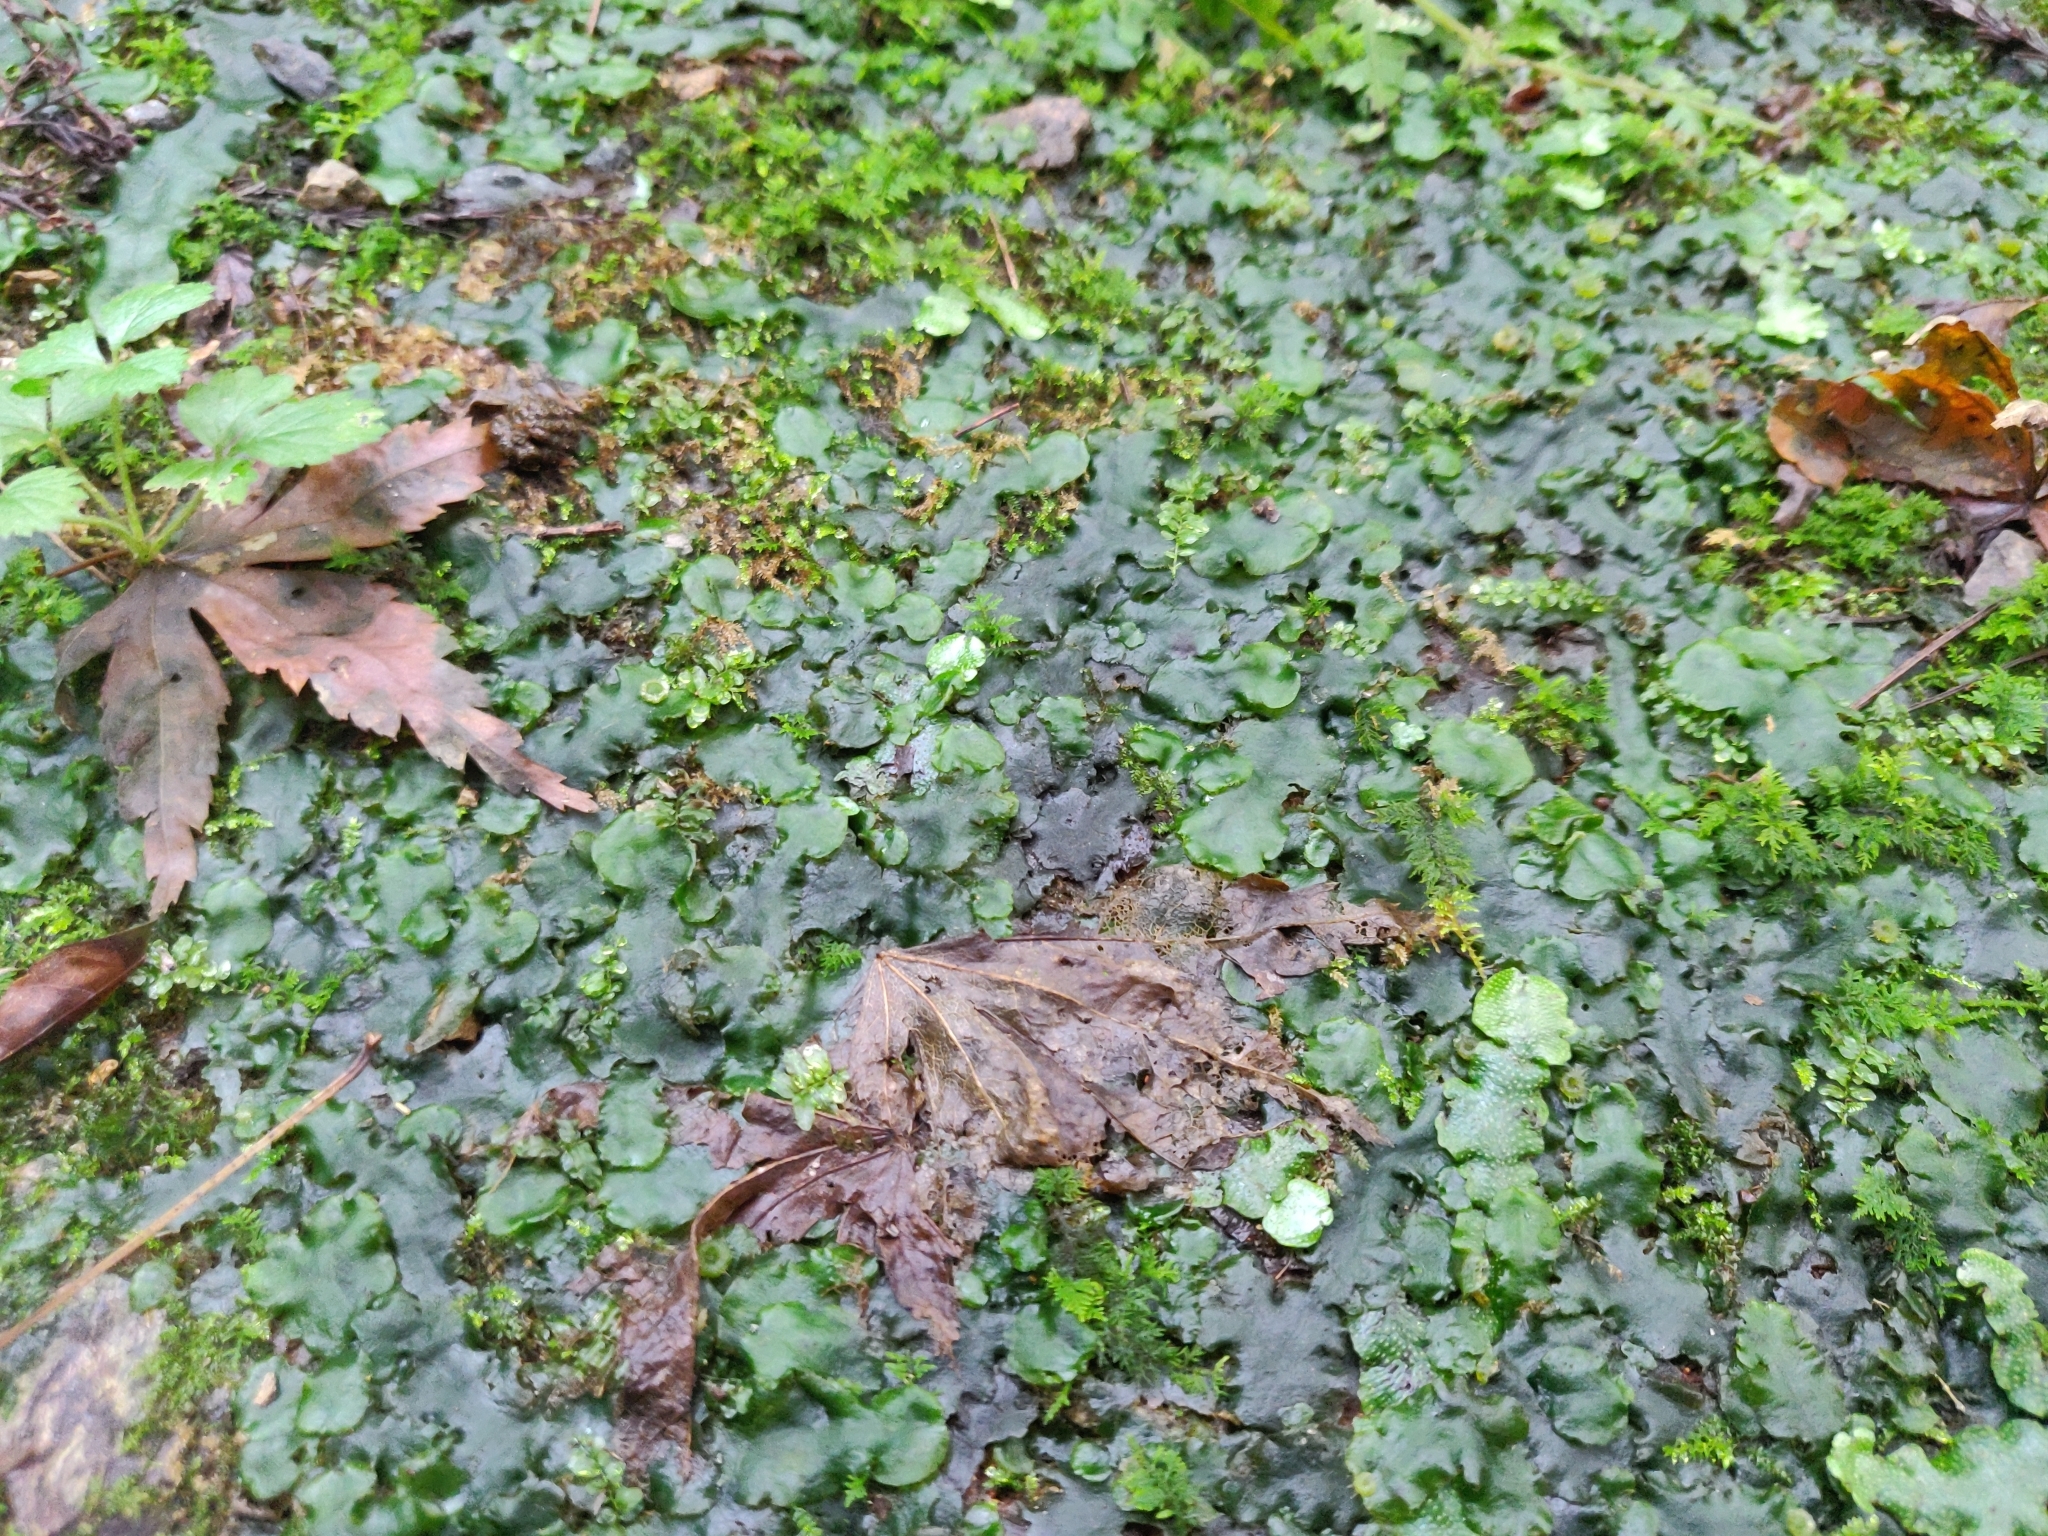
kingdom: Plantae
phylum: Marchantiophyta
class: Marchantiopsida
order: Marchantiales
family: Dumortieraceae
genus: Dumortiera
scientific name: Dumortiera hirsuta
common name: Dumortier's liverwort
